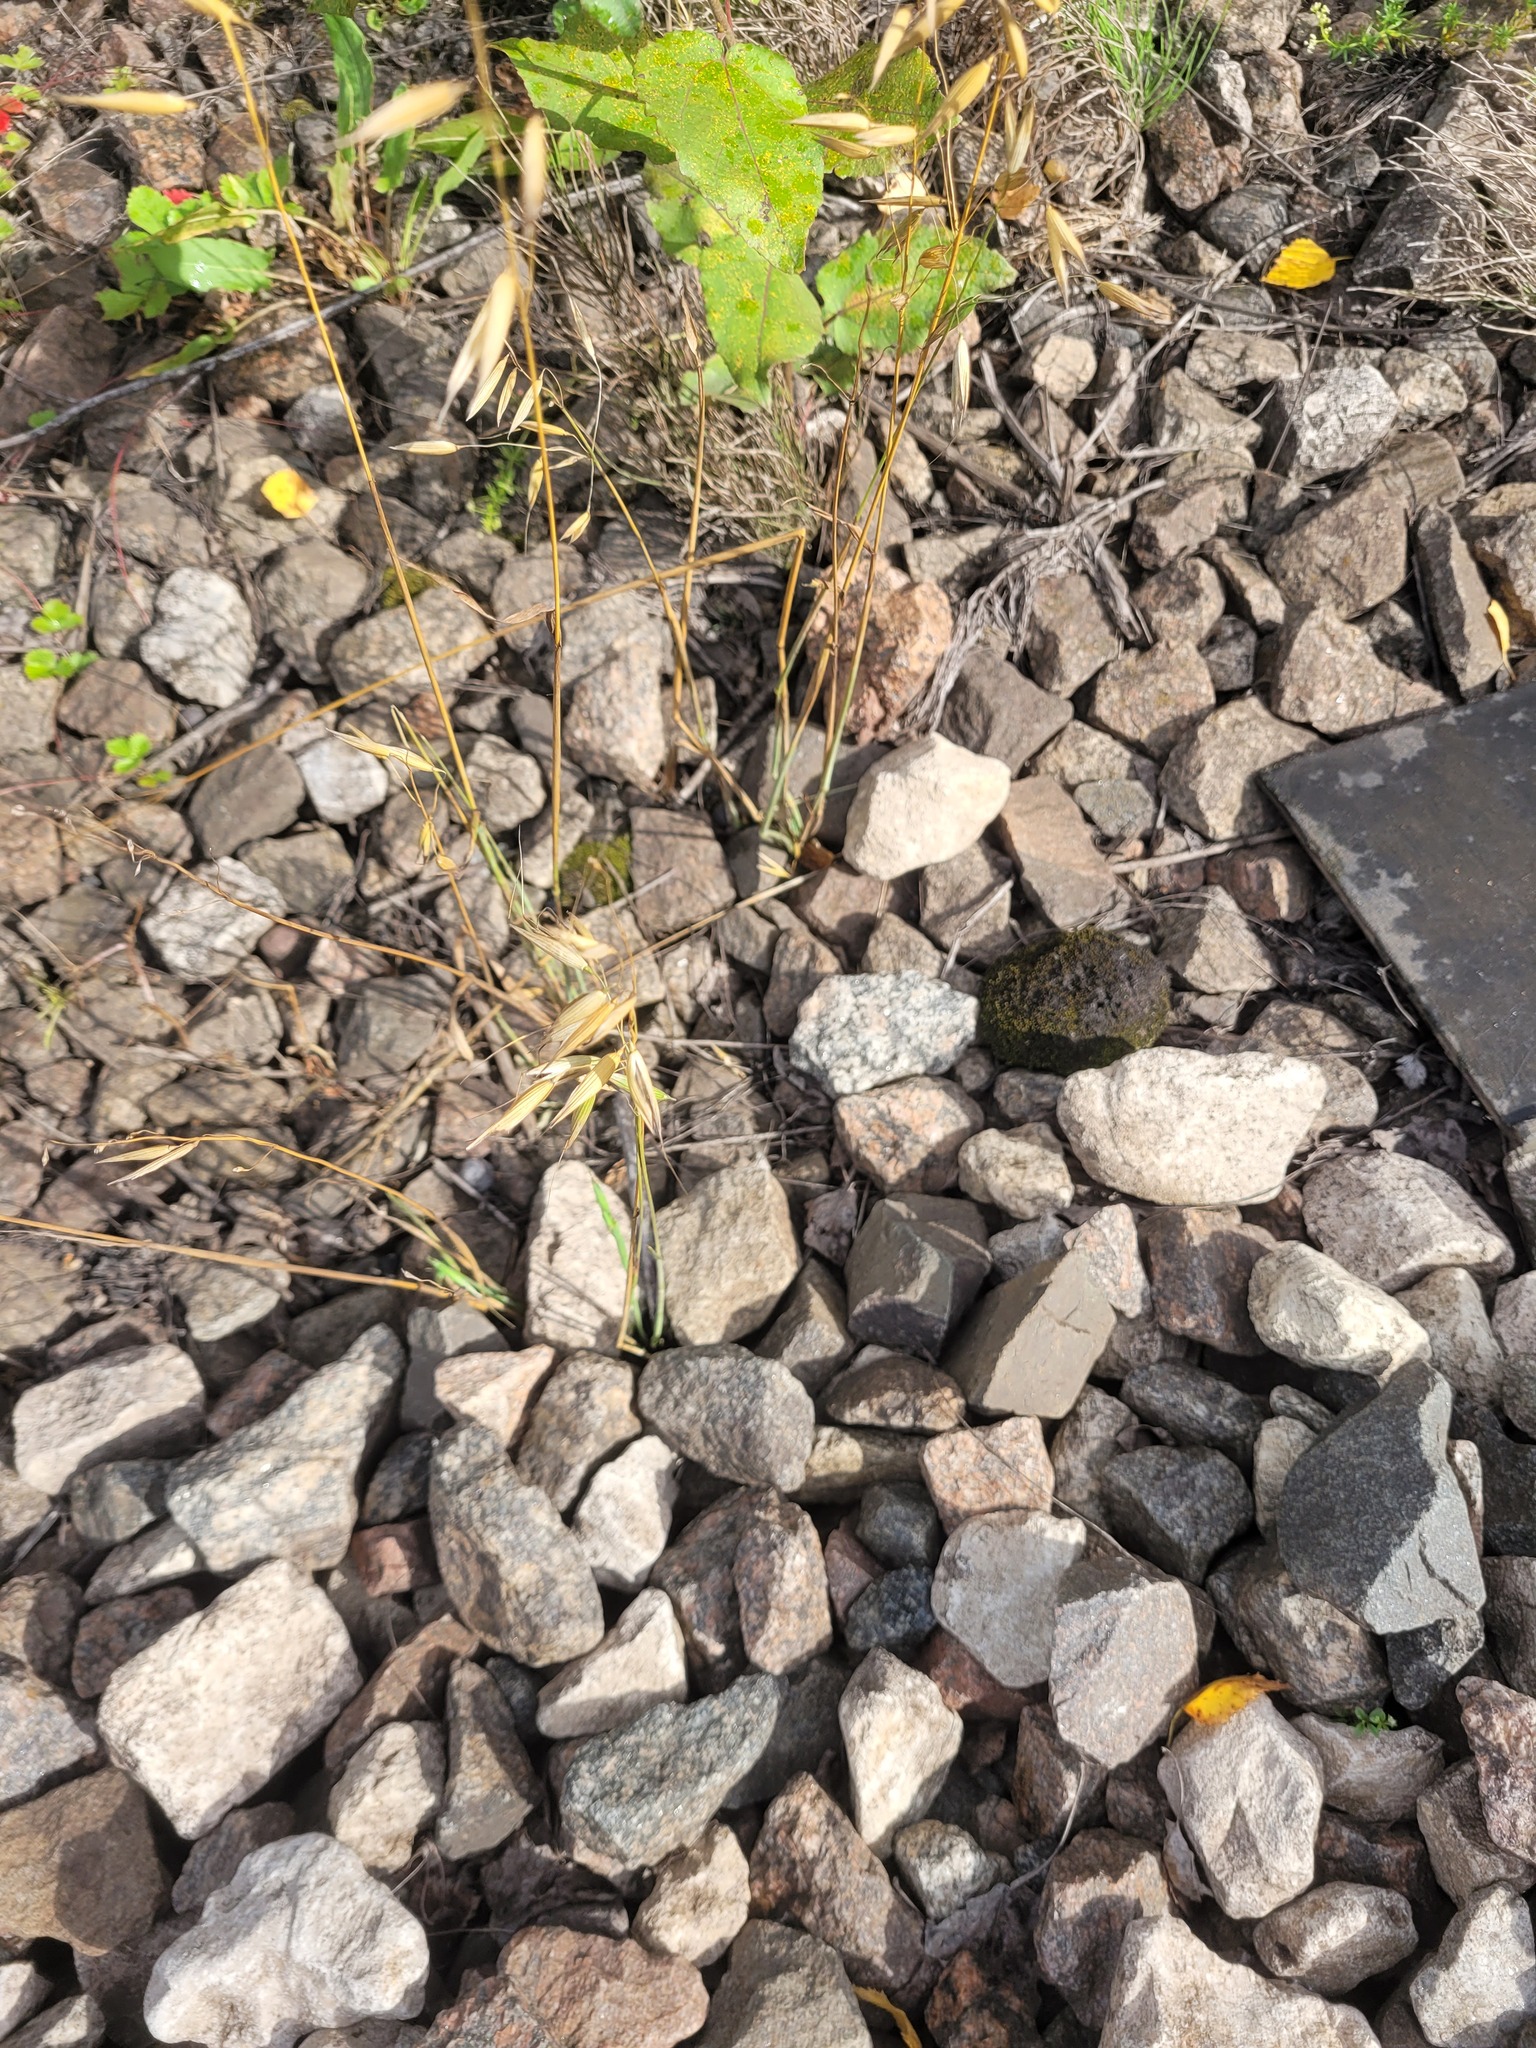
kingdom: Plantae
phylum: Tracheophyta
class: Liliopsida
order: Poales
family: Poaceae
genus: Avena
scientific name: Avena fatua
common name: Wild oat
